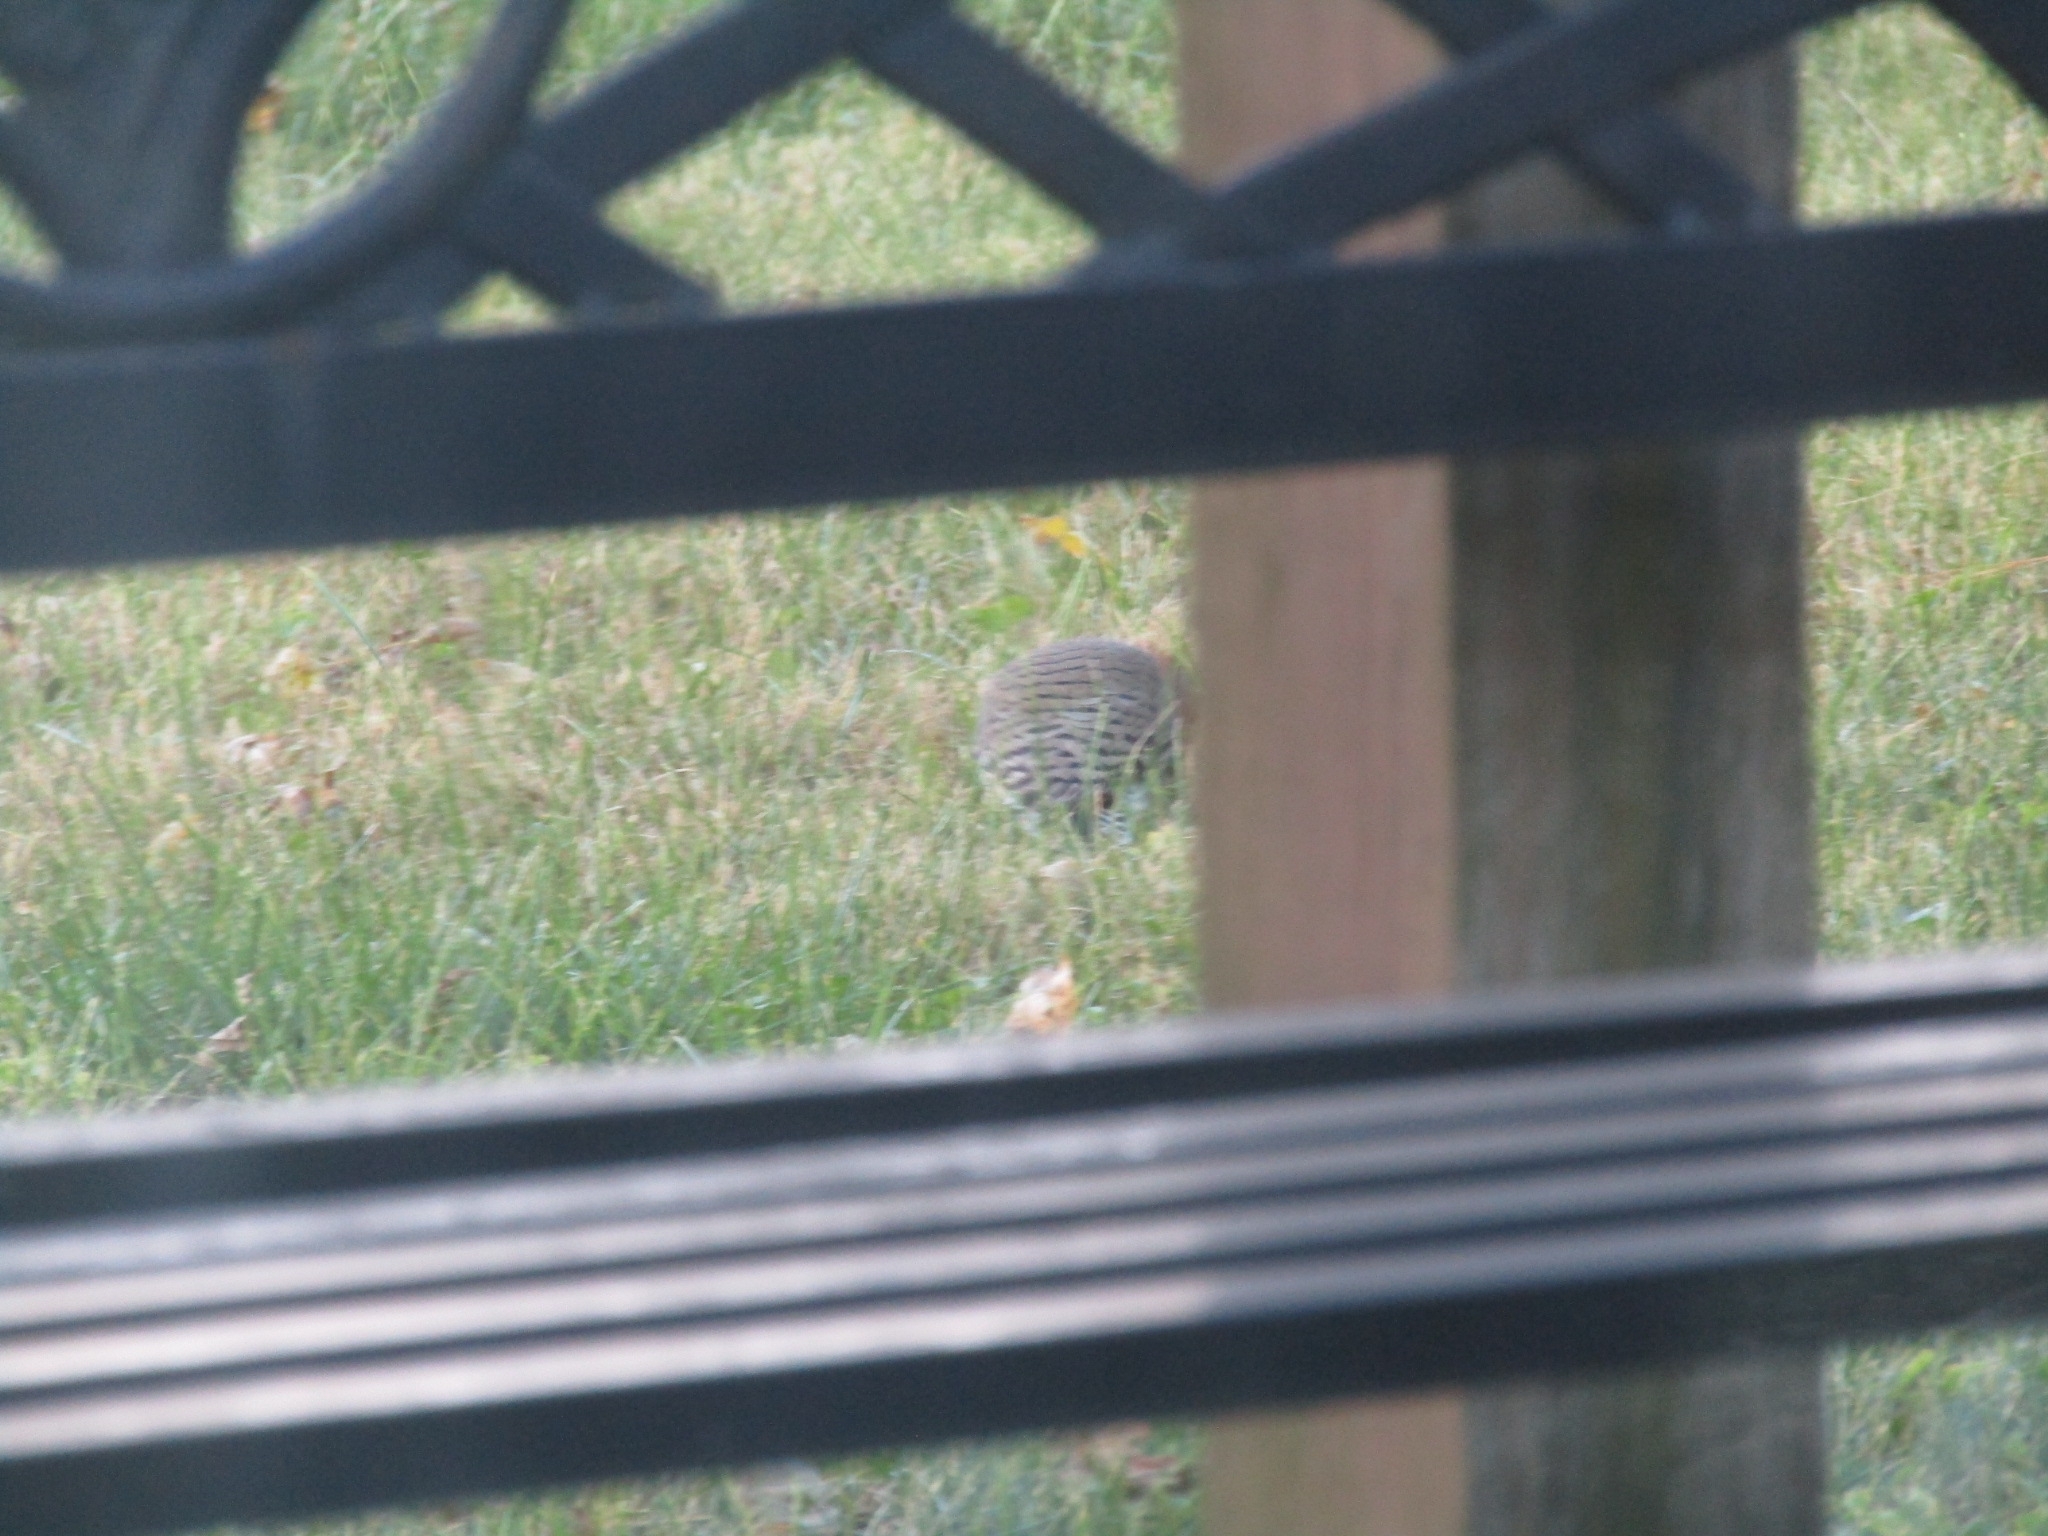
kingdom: Animalia
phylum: Chordata
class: Aves
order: Piciformes
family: Picidae
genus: Colaptes
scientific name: Colaptes auratus
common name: Northern flicker
